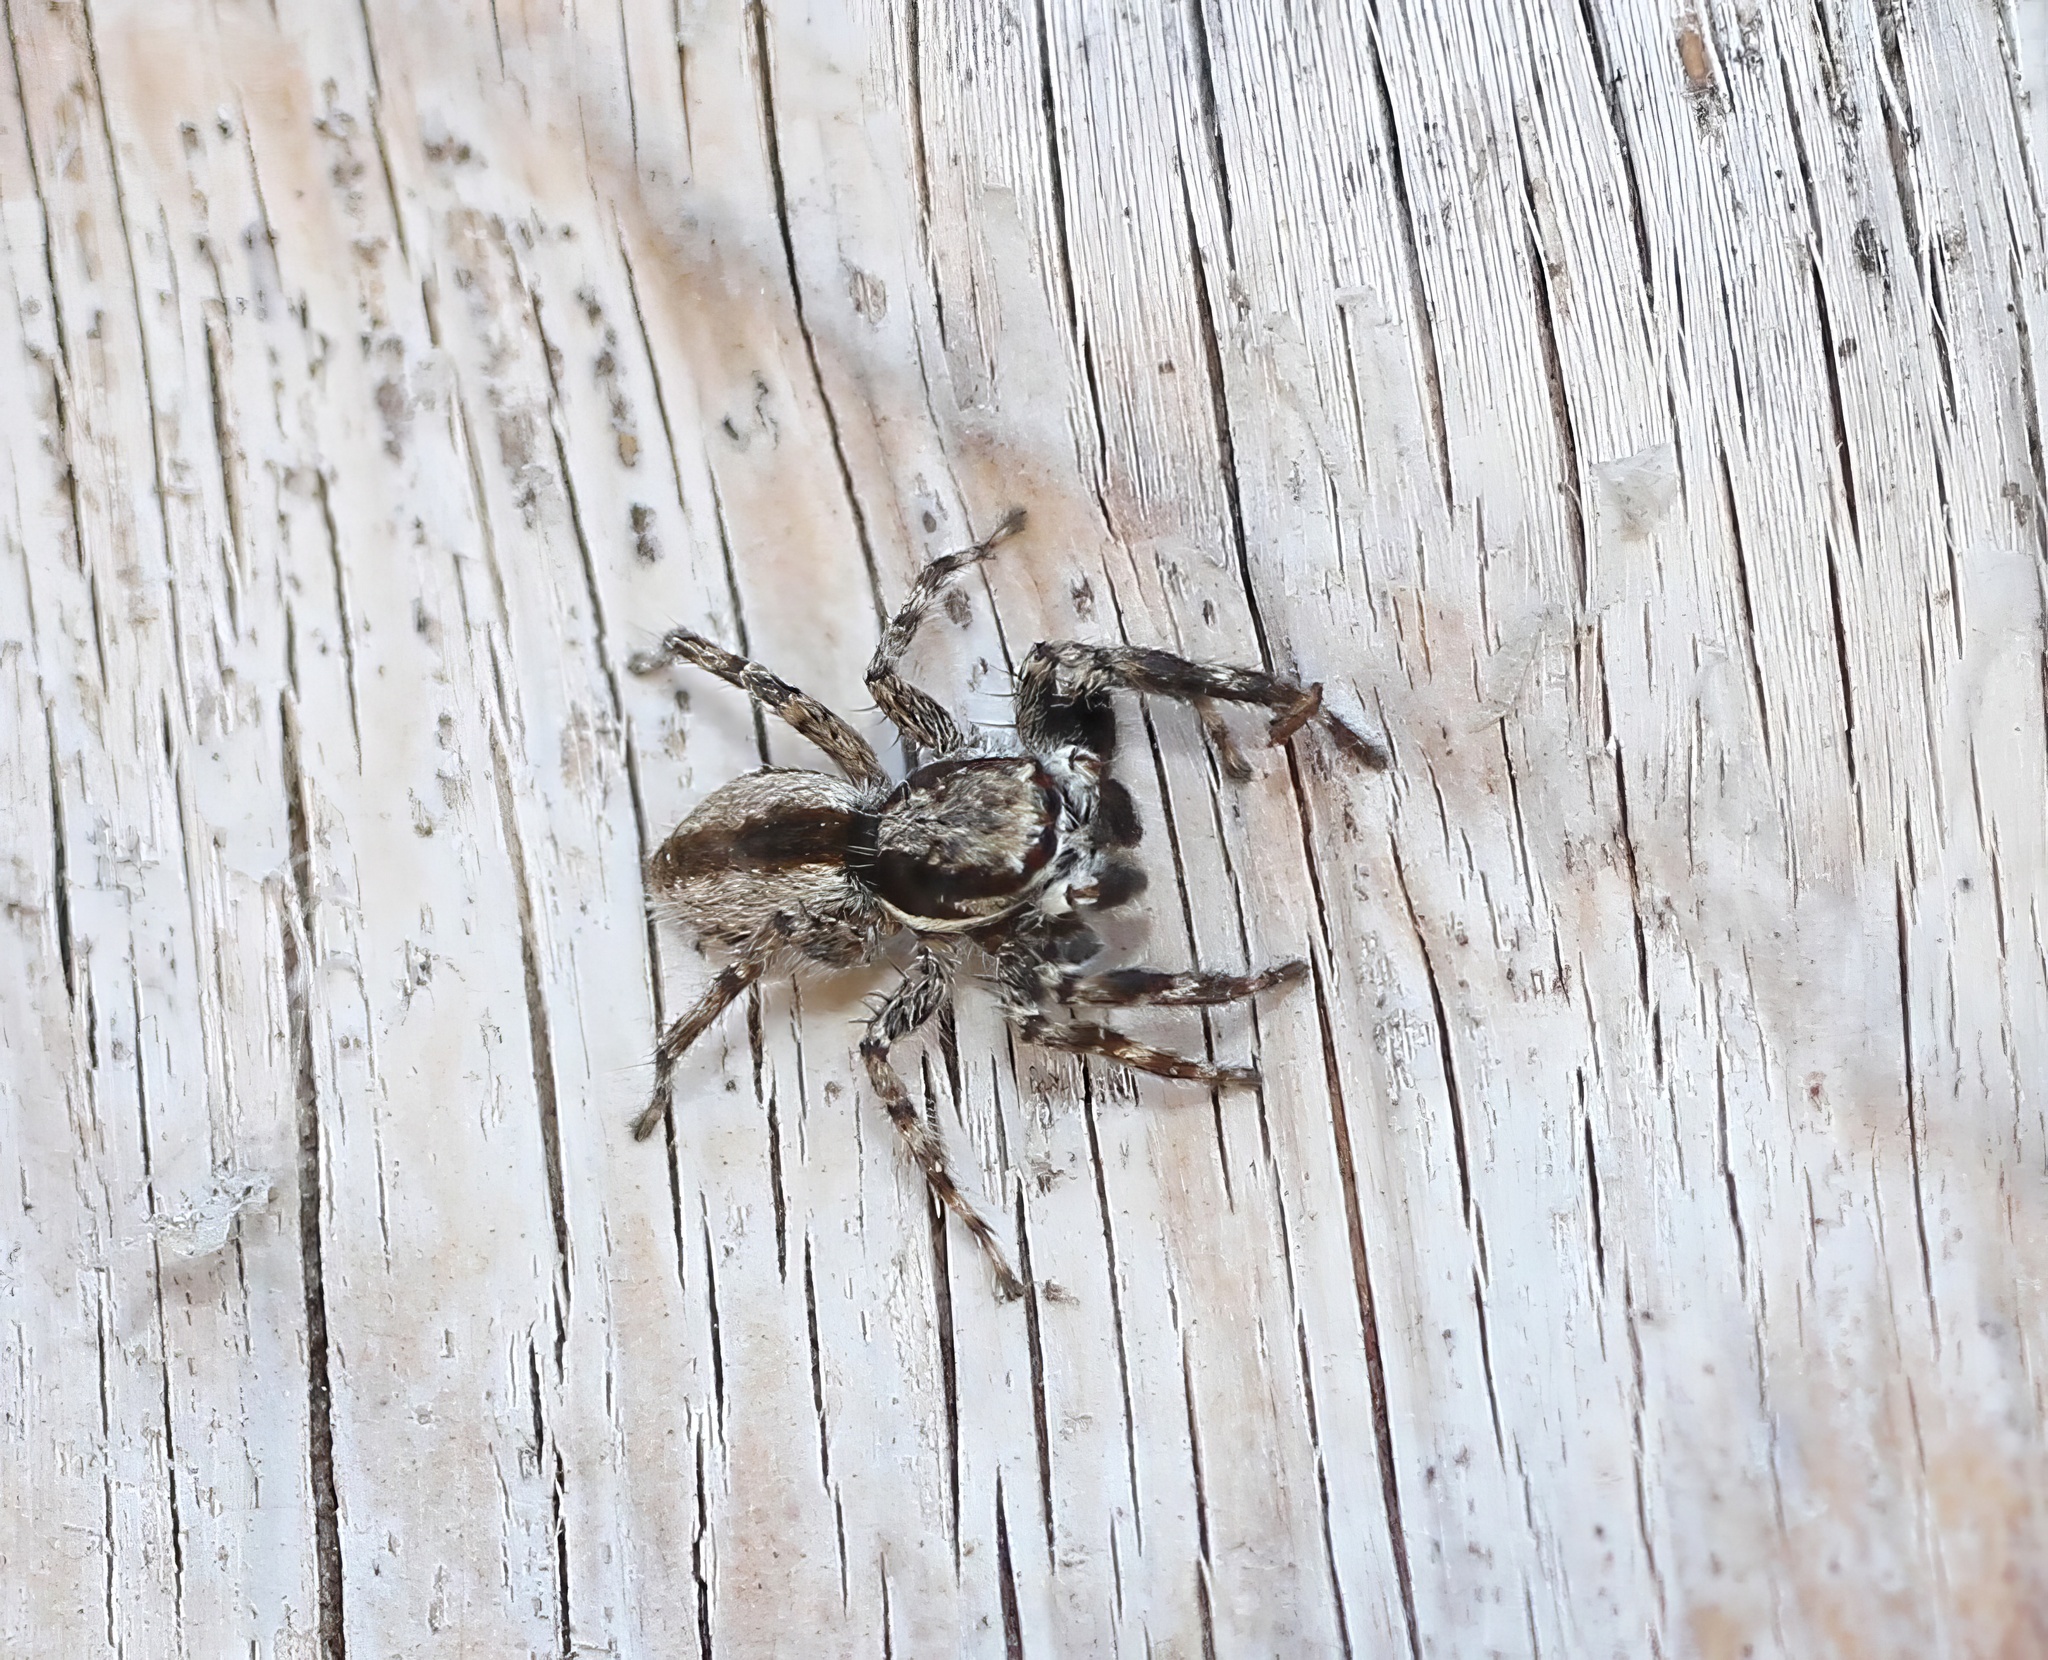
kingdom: Animalia
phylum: Arthropoda
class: Arachnida
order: Araneae
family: Salticidae
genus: Menemerus
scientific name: Menemerus bivittatus
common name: Gray wall jumper
